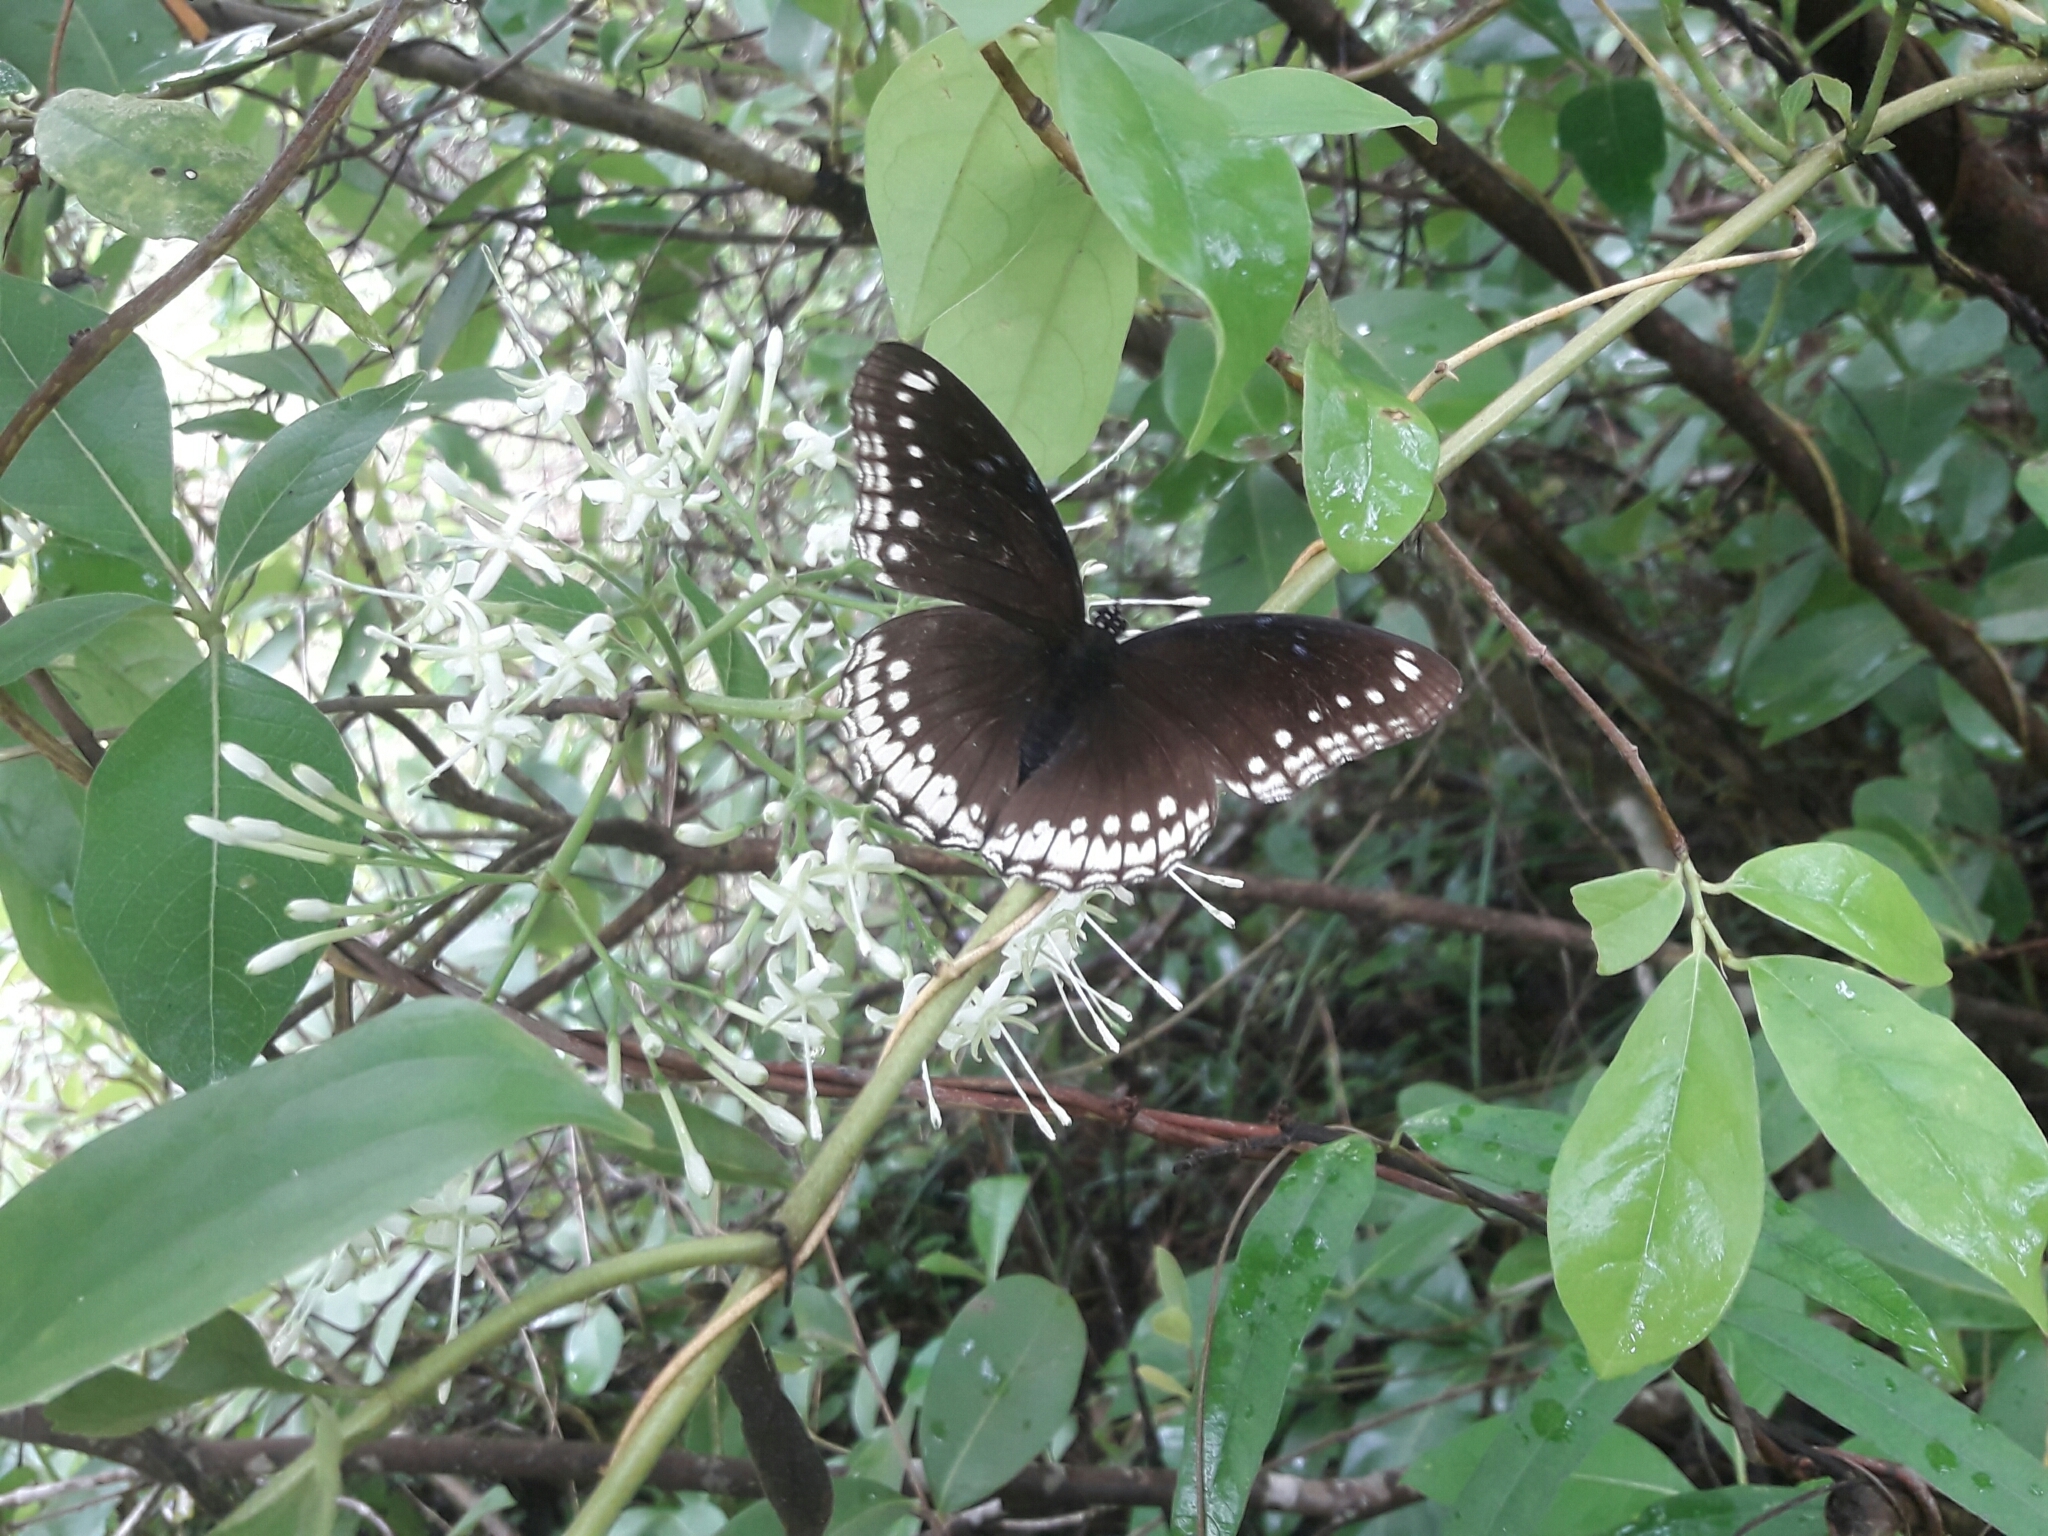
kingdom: Animalia
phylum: Arthropoda
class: Insecta
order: Lepidoptera
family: Nymphalidae
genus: Hypolimnas
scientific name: Hypolimnas bolina
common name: Great eggfly
